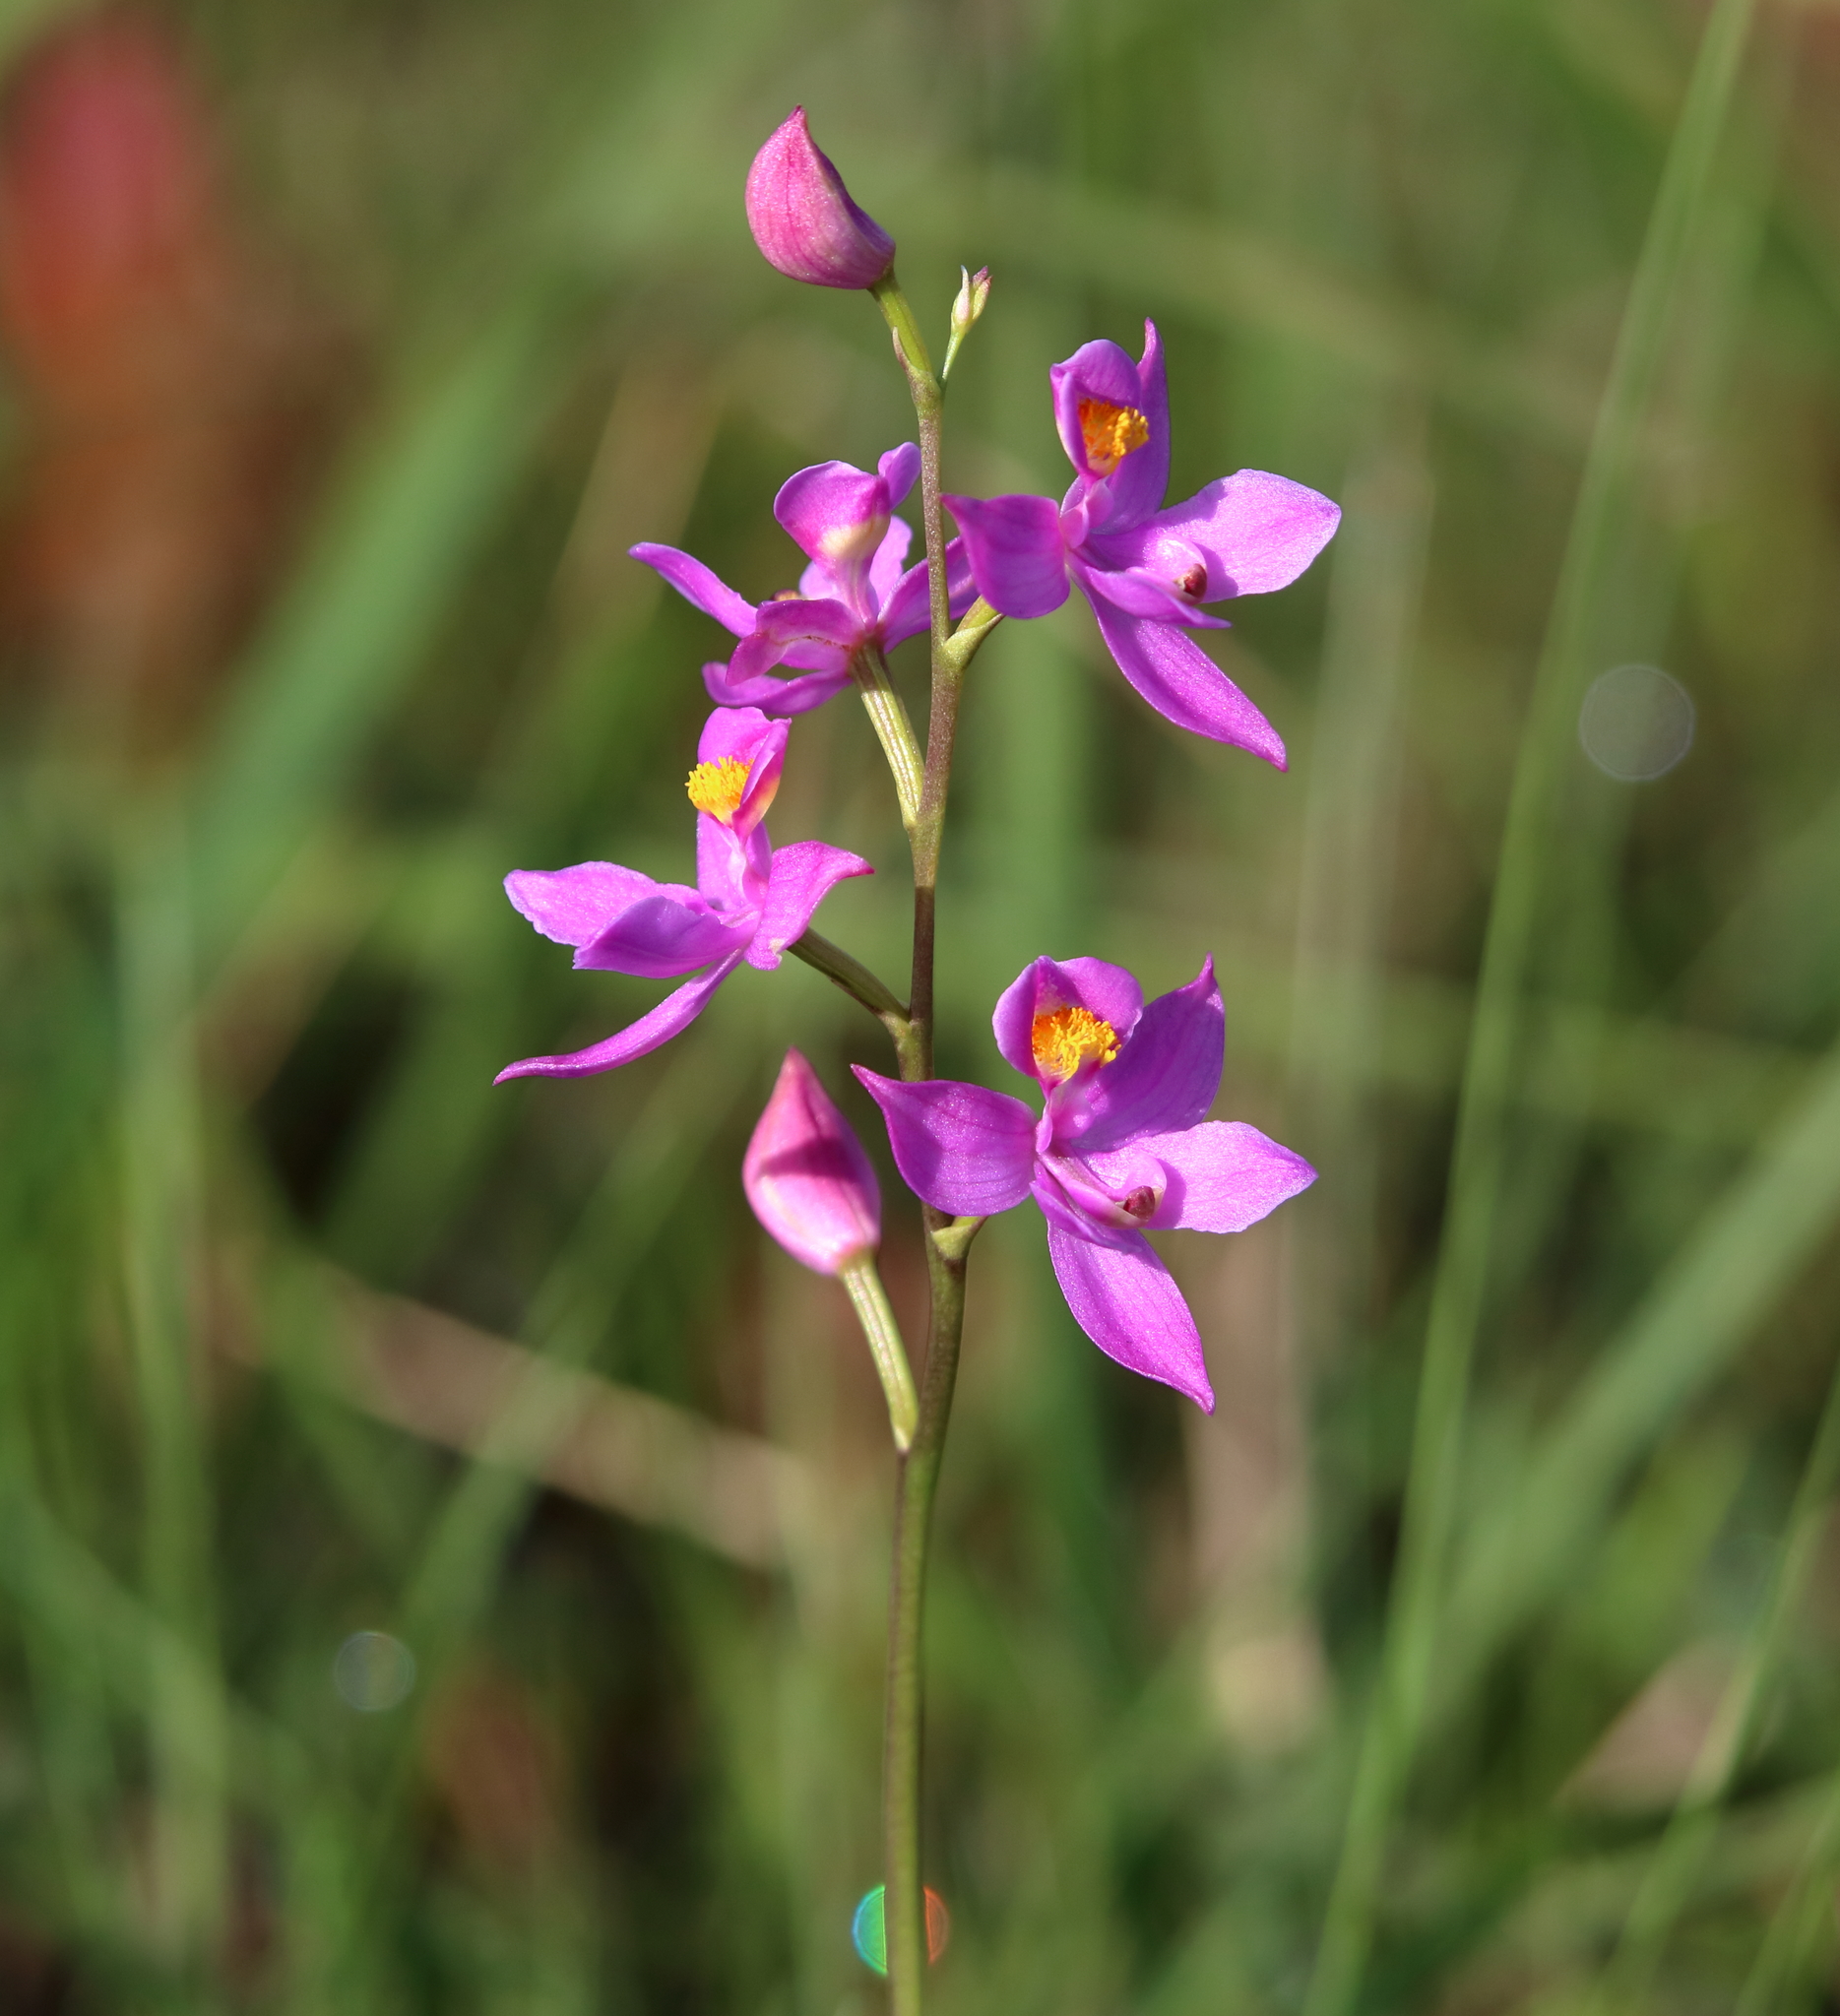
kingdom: Plantae
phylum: Tracheophyta
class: Liliopsida
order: Asparagales
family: Orchidaceae
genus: Calopogon
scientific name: Calopogon multiflorus
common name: Many-flowered grass-pink orchid
